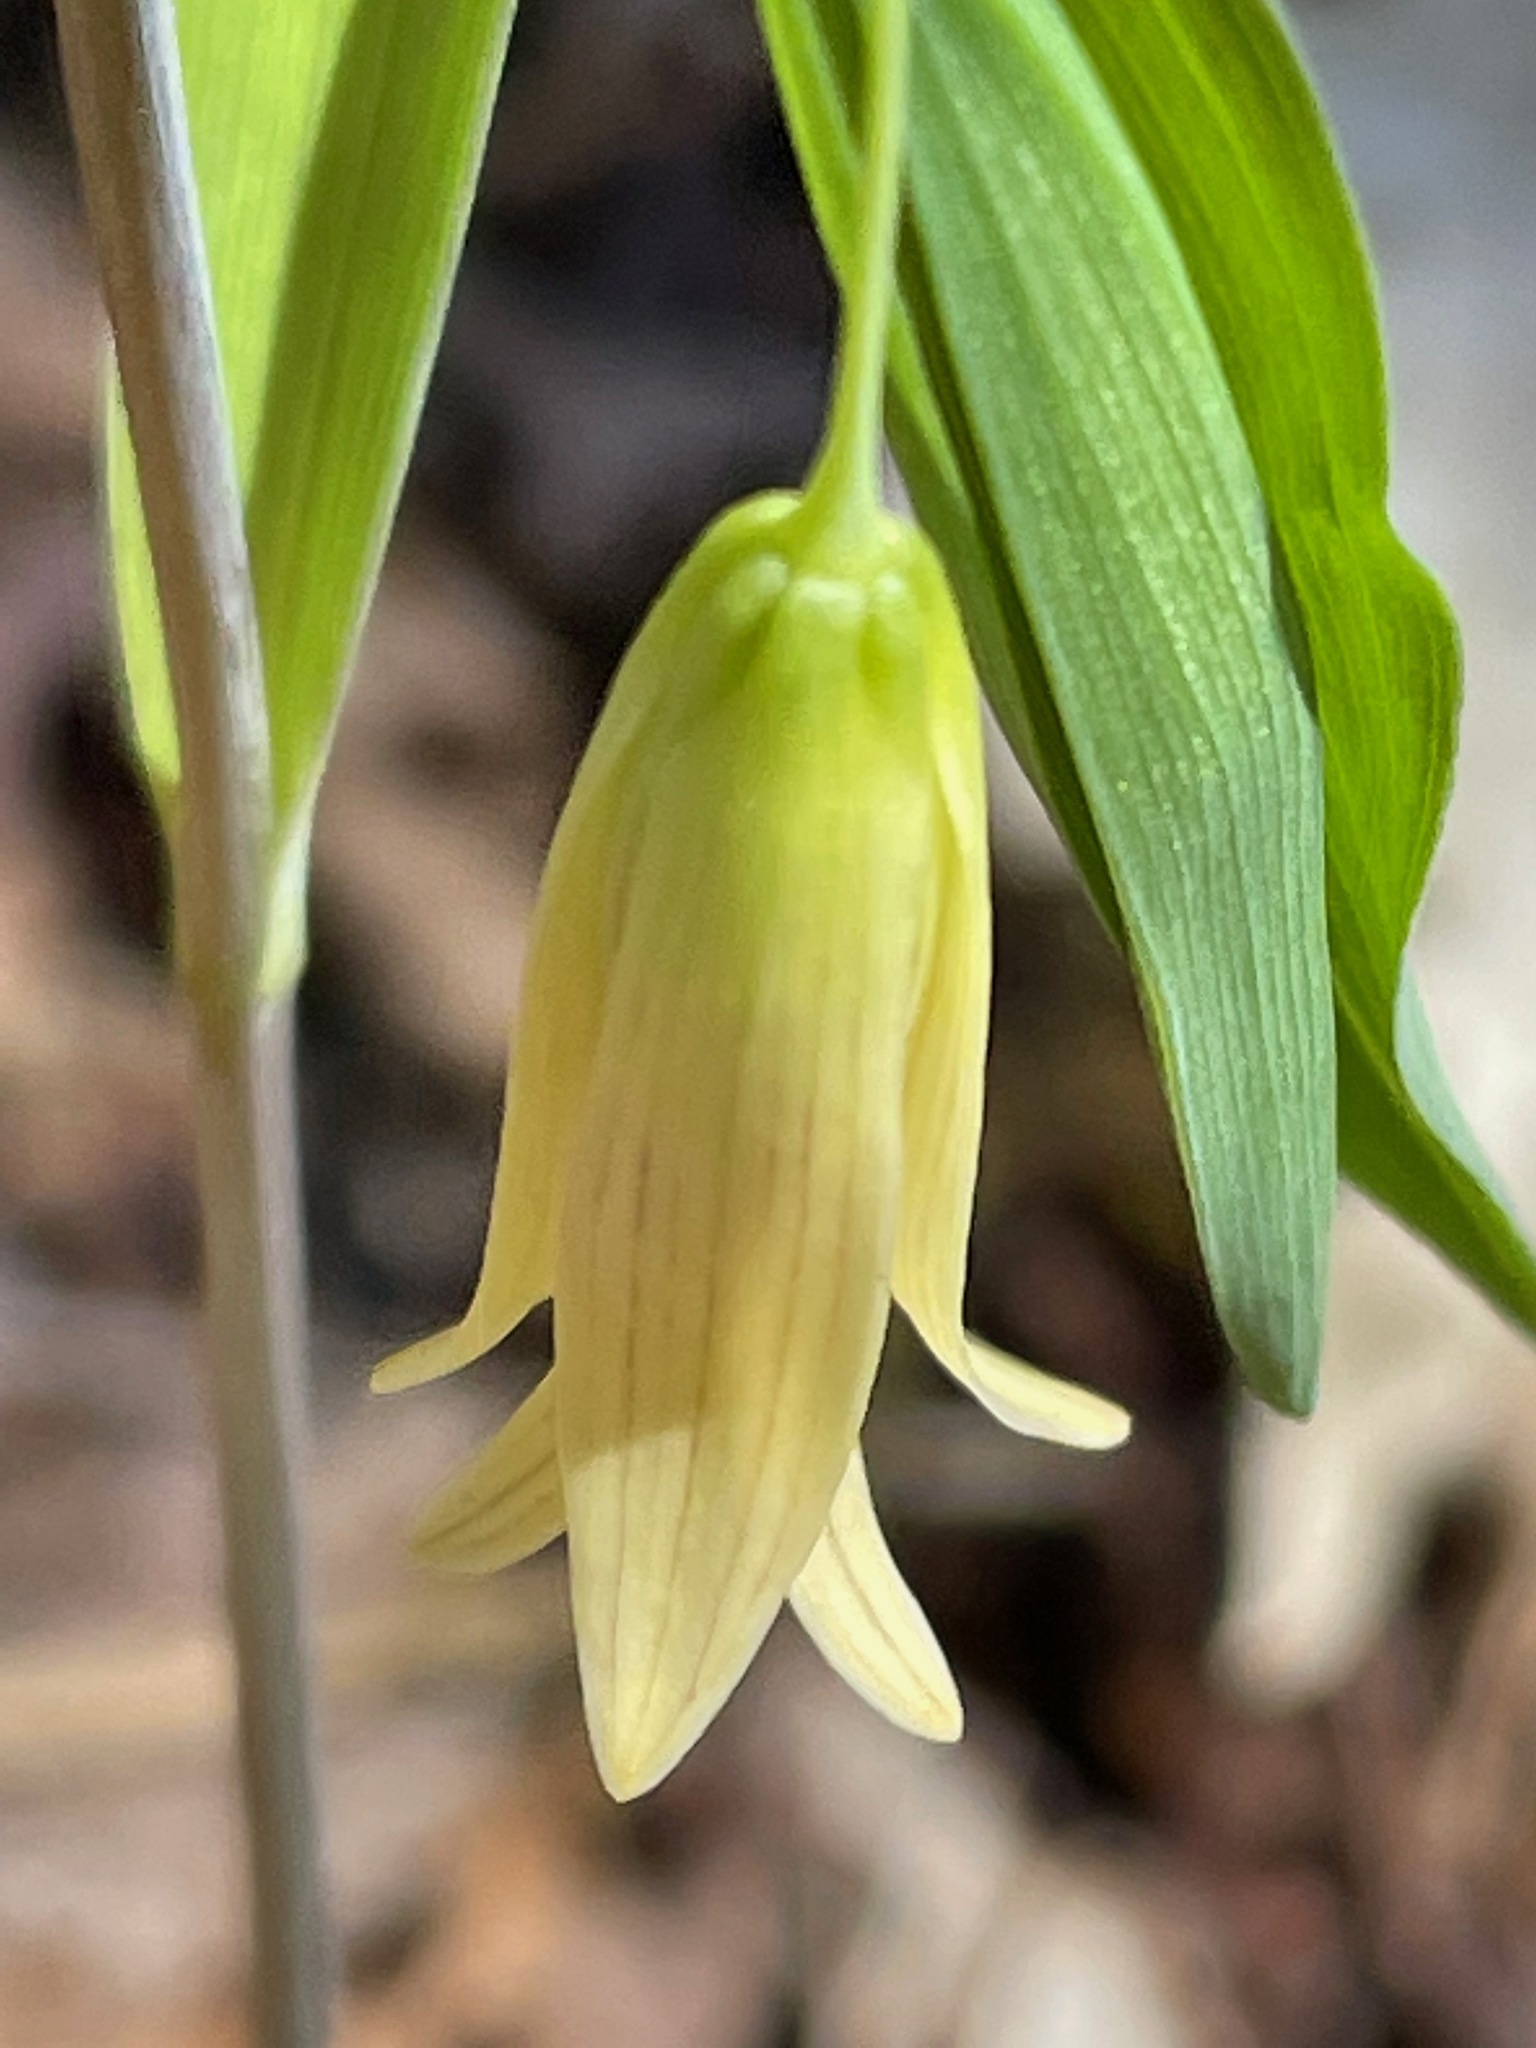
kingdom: Plantae
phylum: Tracheophyta
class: Liliopsida
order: Liliales
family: Colchicaceae
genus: Uvularia
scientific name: Uvularia sessilifolia
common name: Straw-lily
